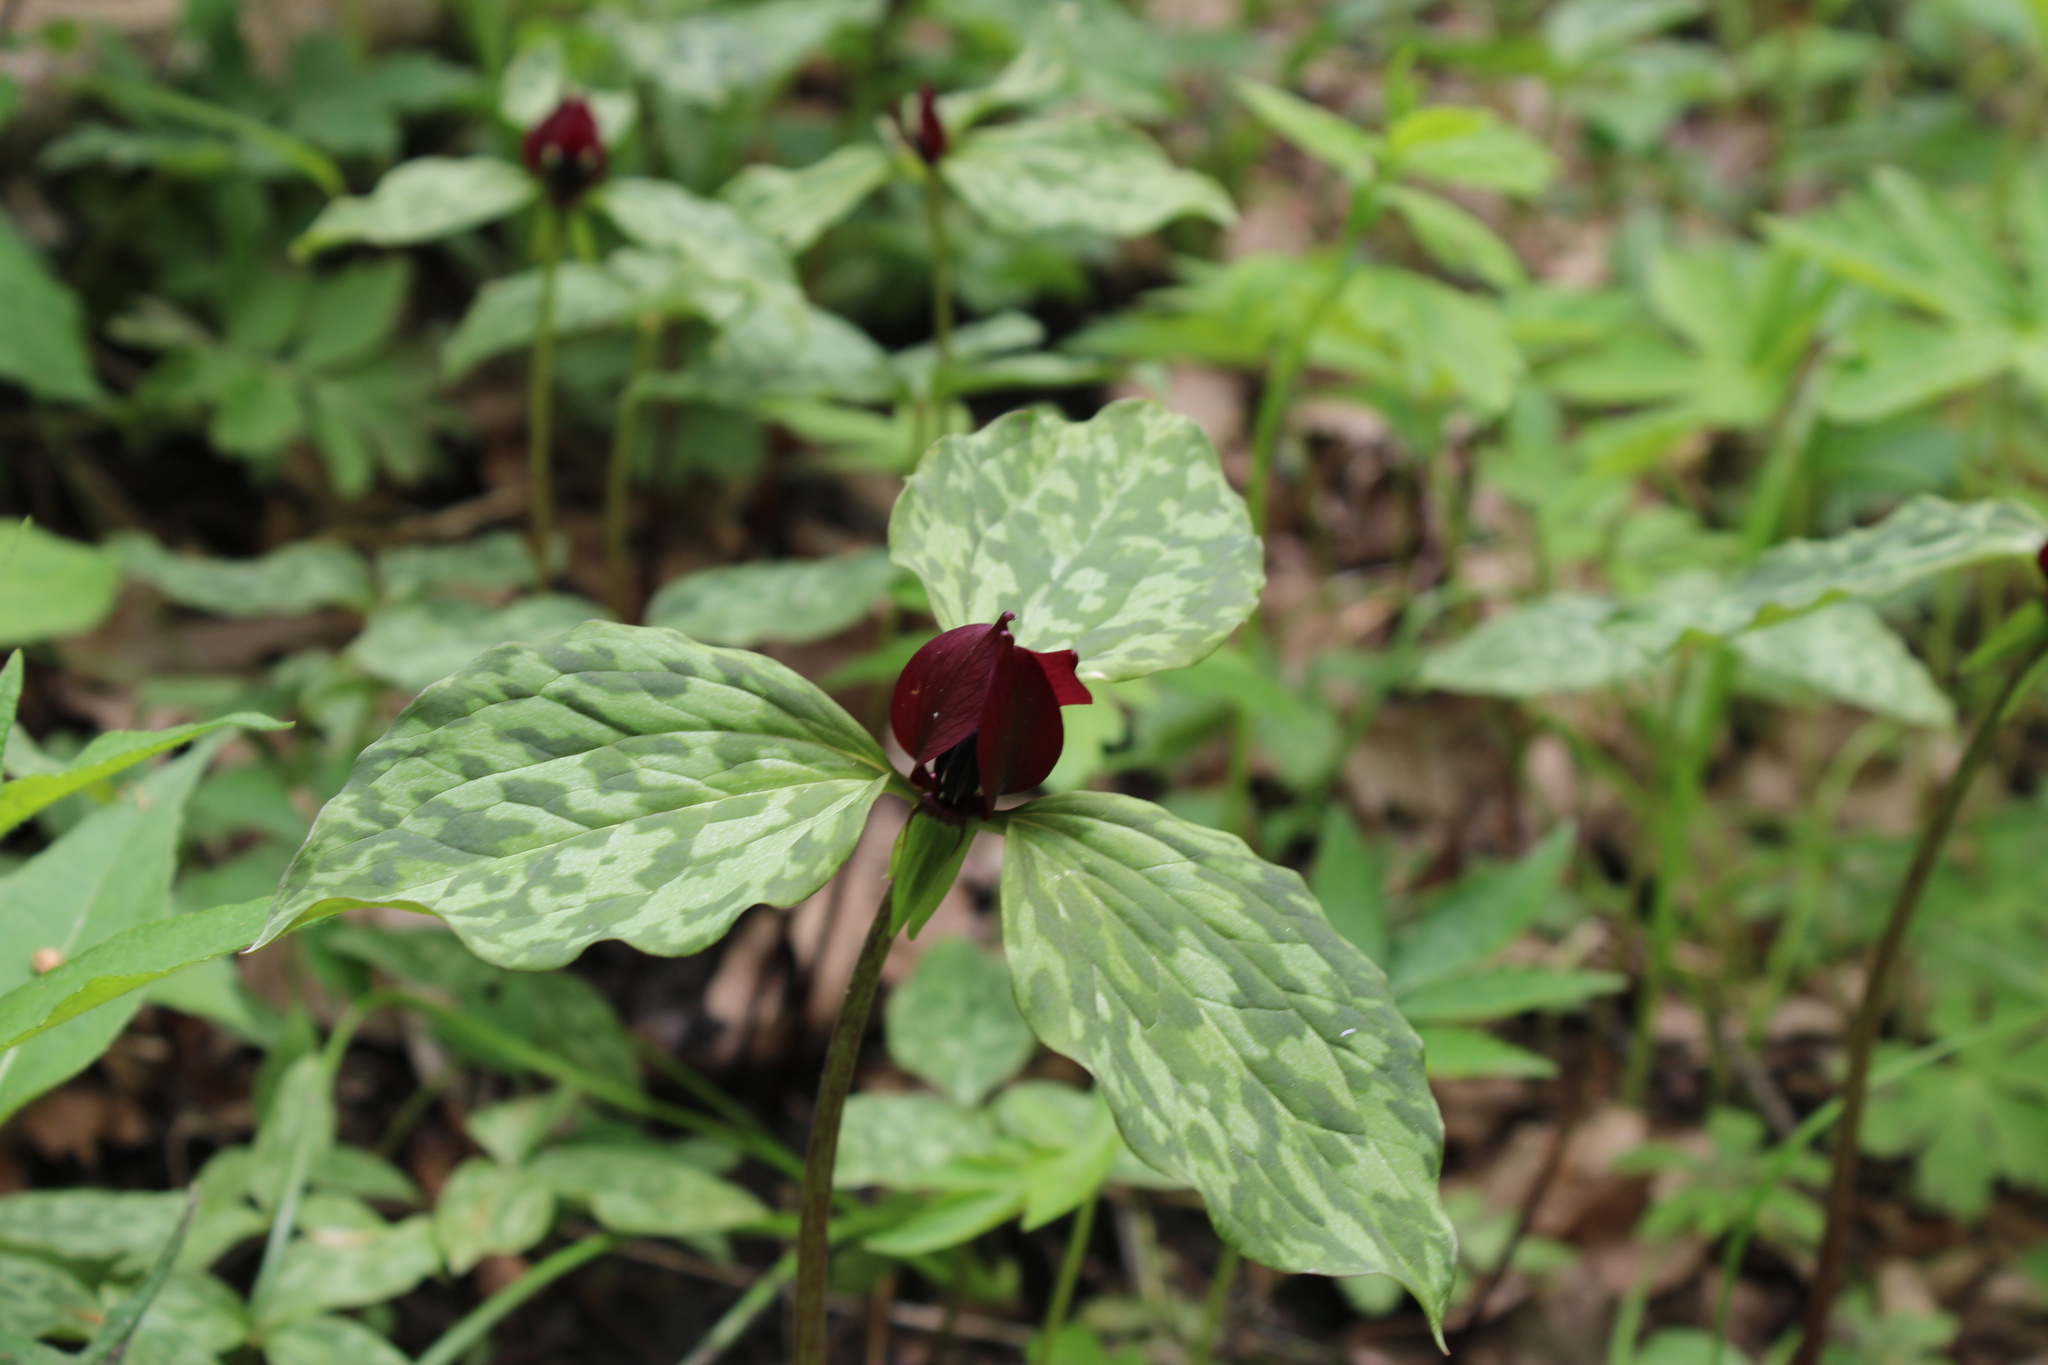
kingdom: Plantae
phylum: Tracheophyta
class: Liliopsida
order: Liliales
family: Melanthiaceae
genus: Trillium
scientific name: Trillium recurvatum
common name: Bloody butcher
